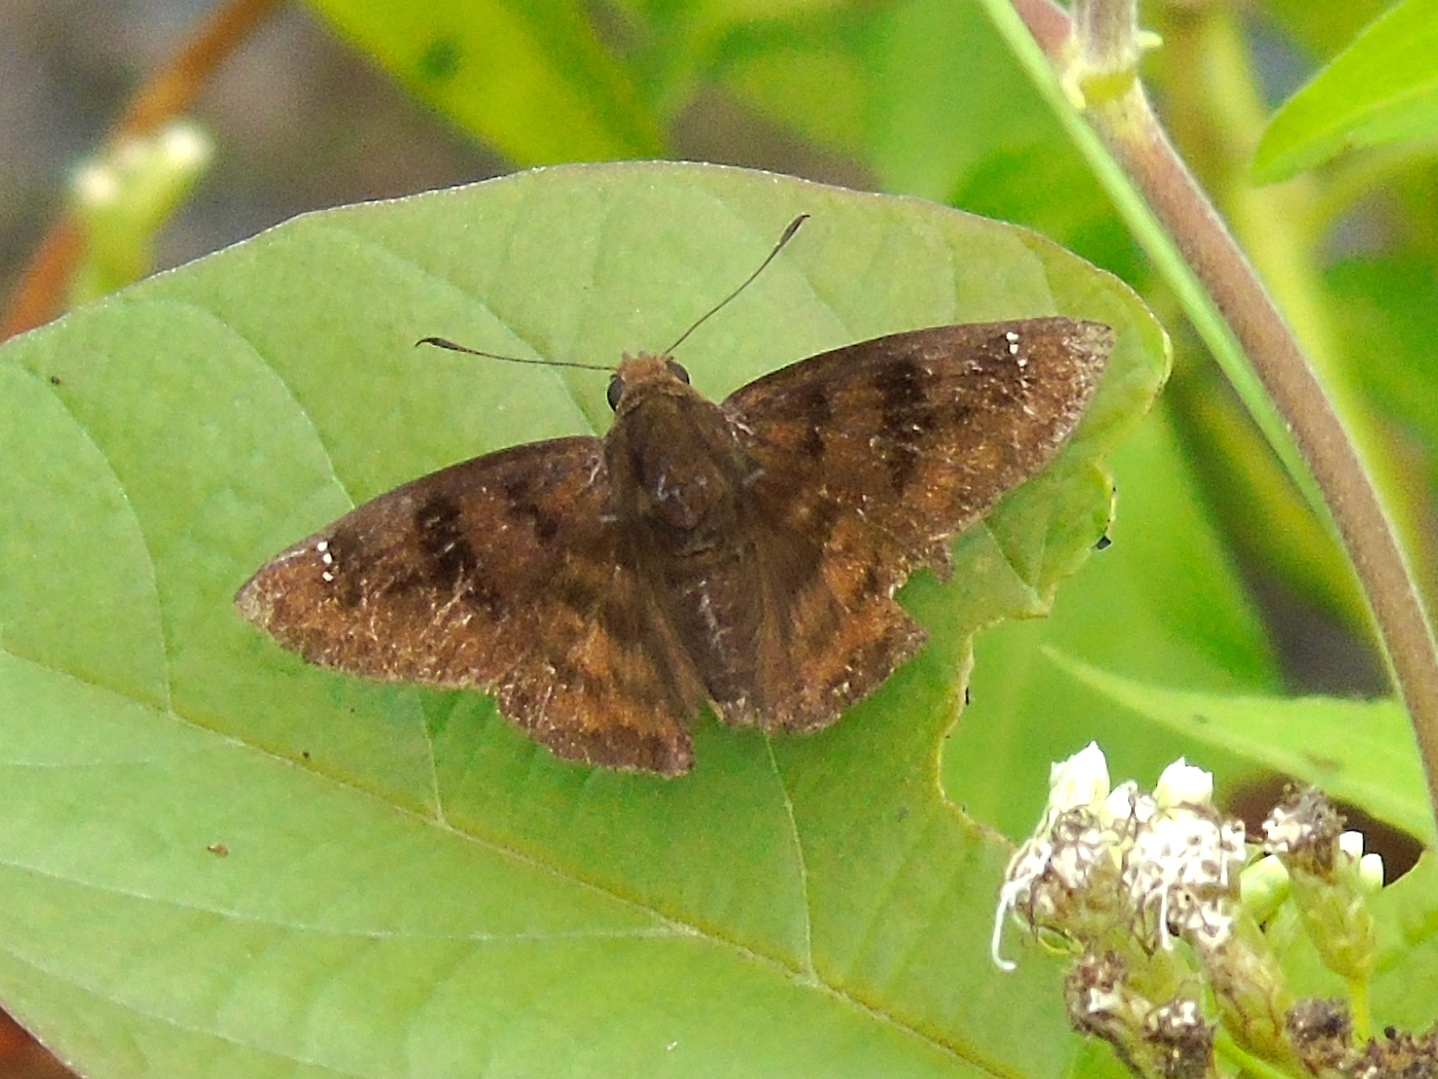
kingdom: Animalia
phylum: Arthropoda
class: Insecta
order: Lepidoptera
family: Hesperiidae
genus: Nisoniades
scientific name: Nisoniades
